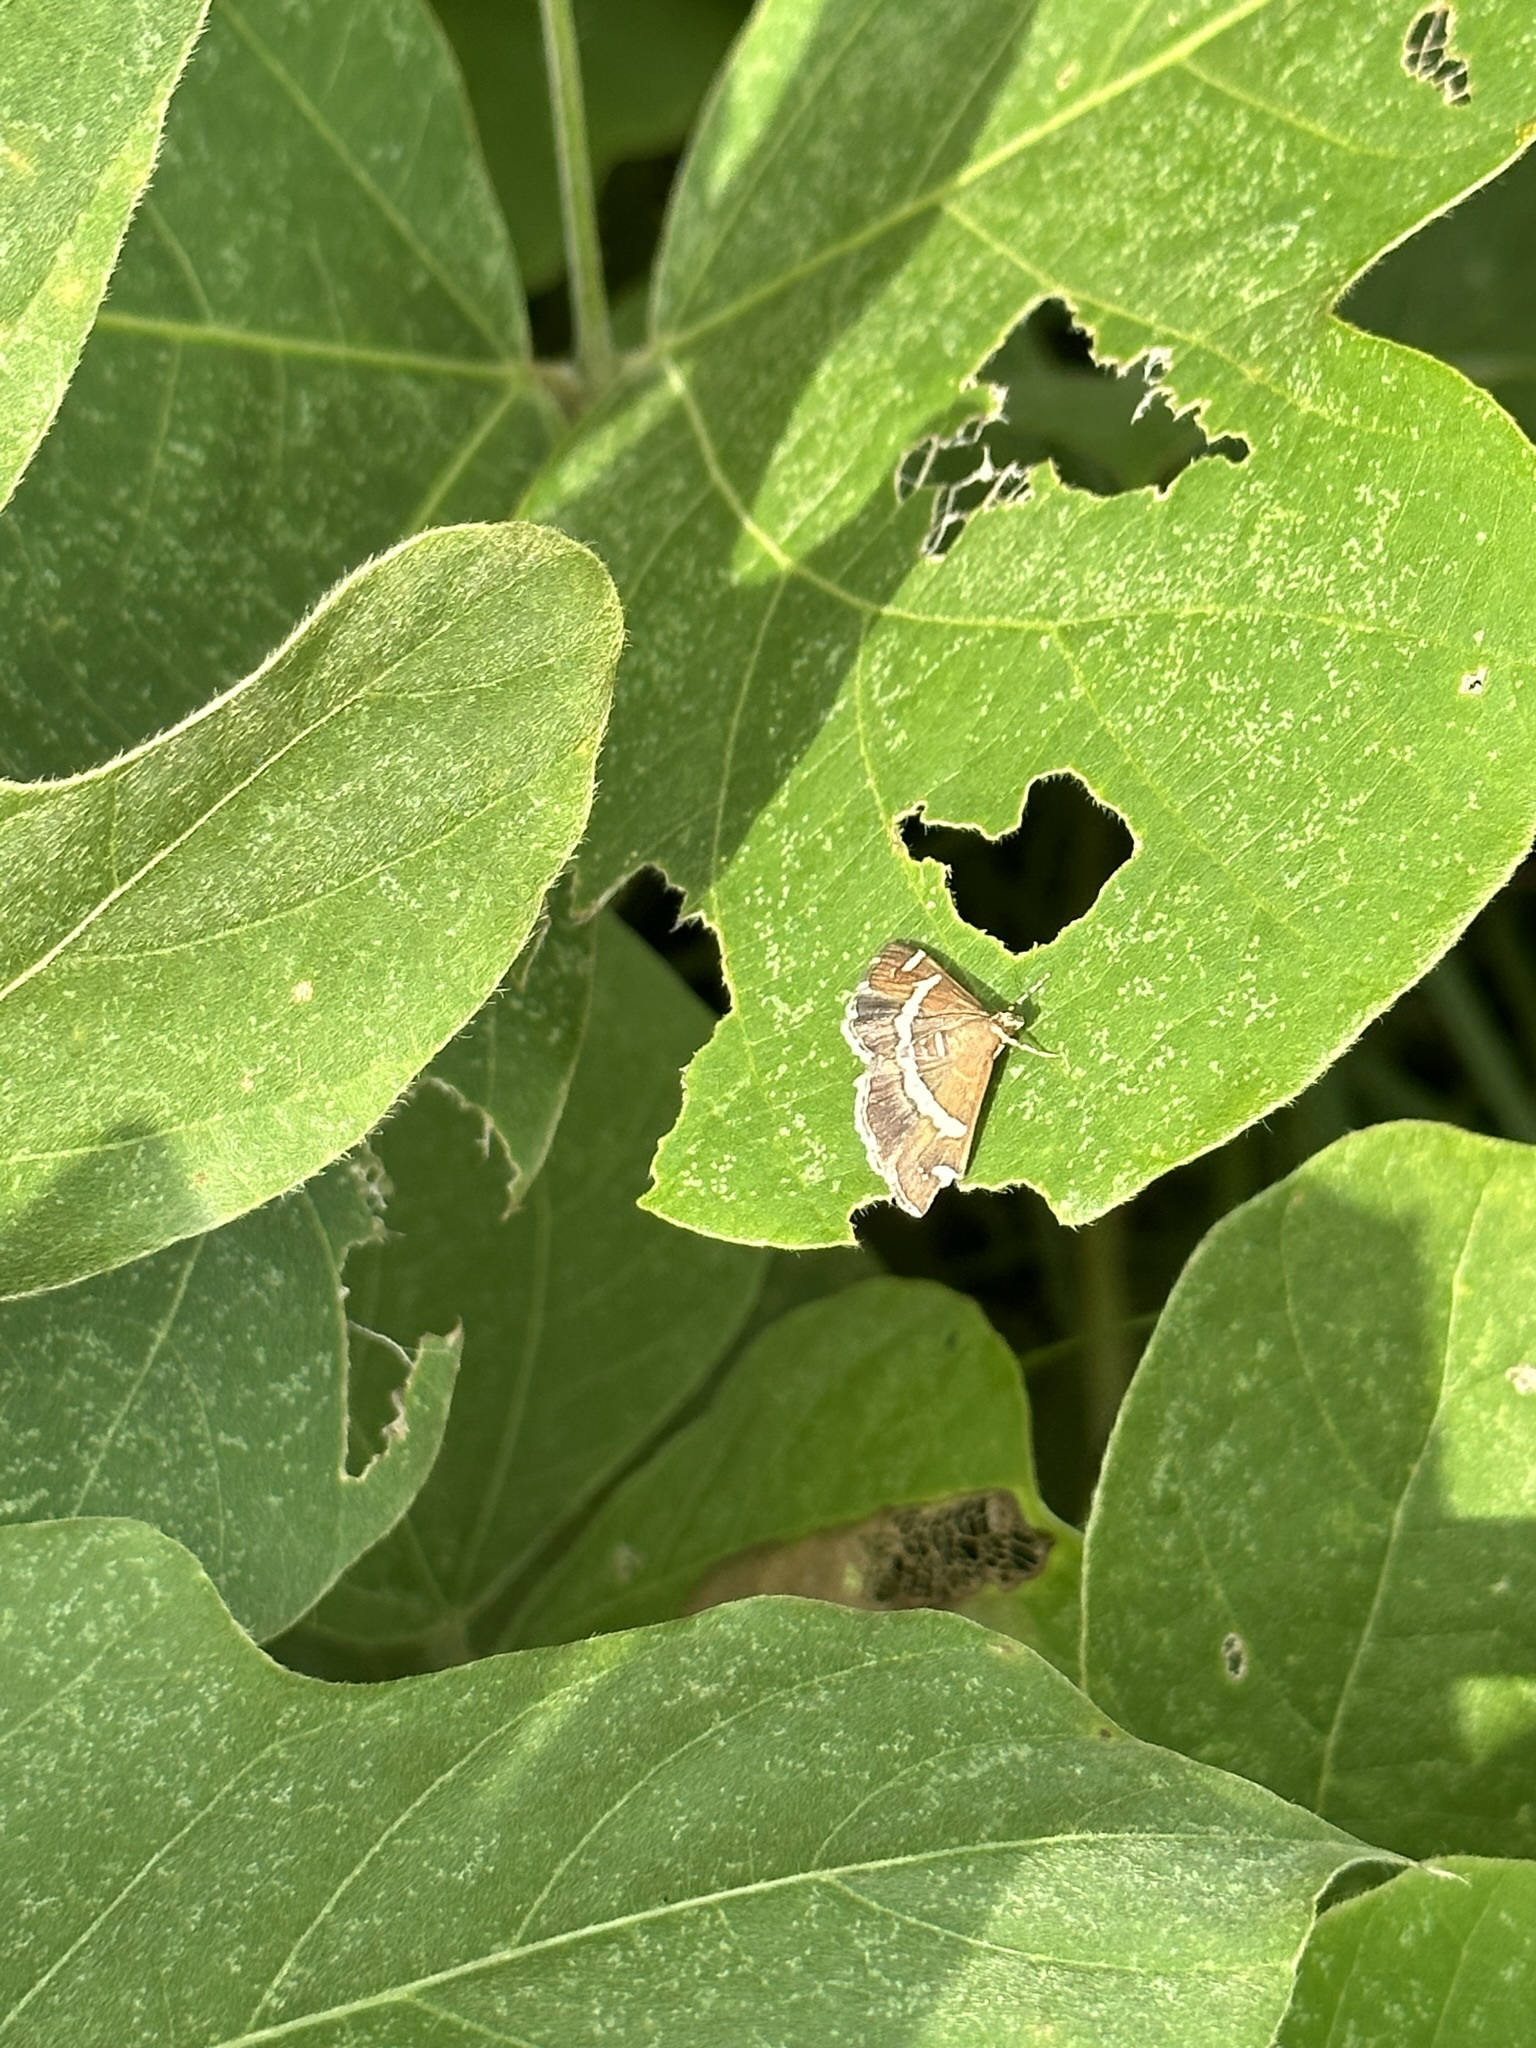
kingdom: Animalia
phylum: Arthropoda
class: Insecta
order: Lepidoptera
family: Crambidae
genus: Spoladea
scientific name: Spoladea recurvalis
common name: Beet webworm moth
